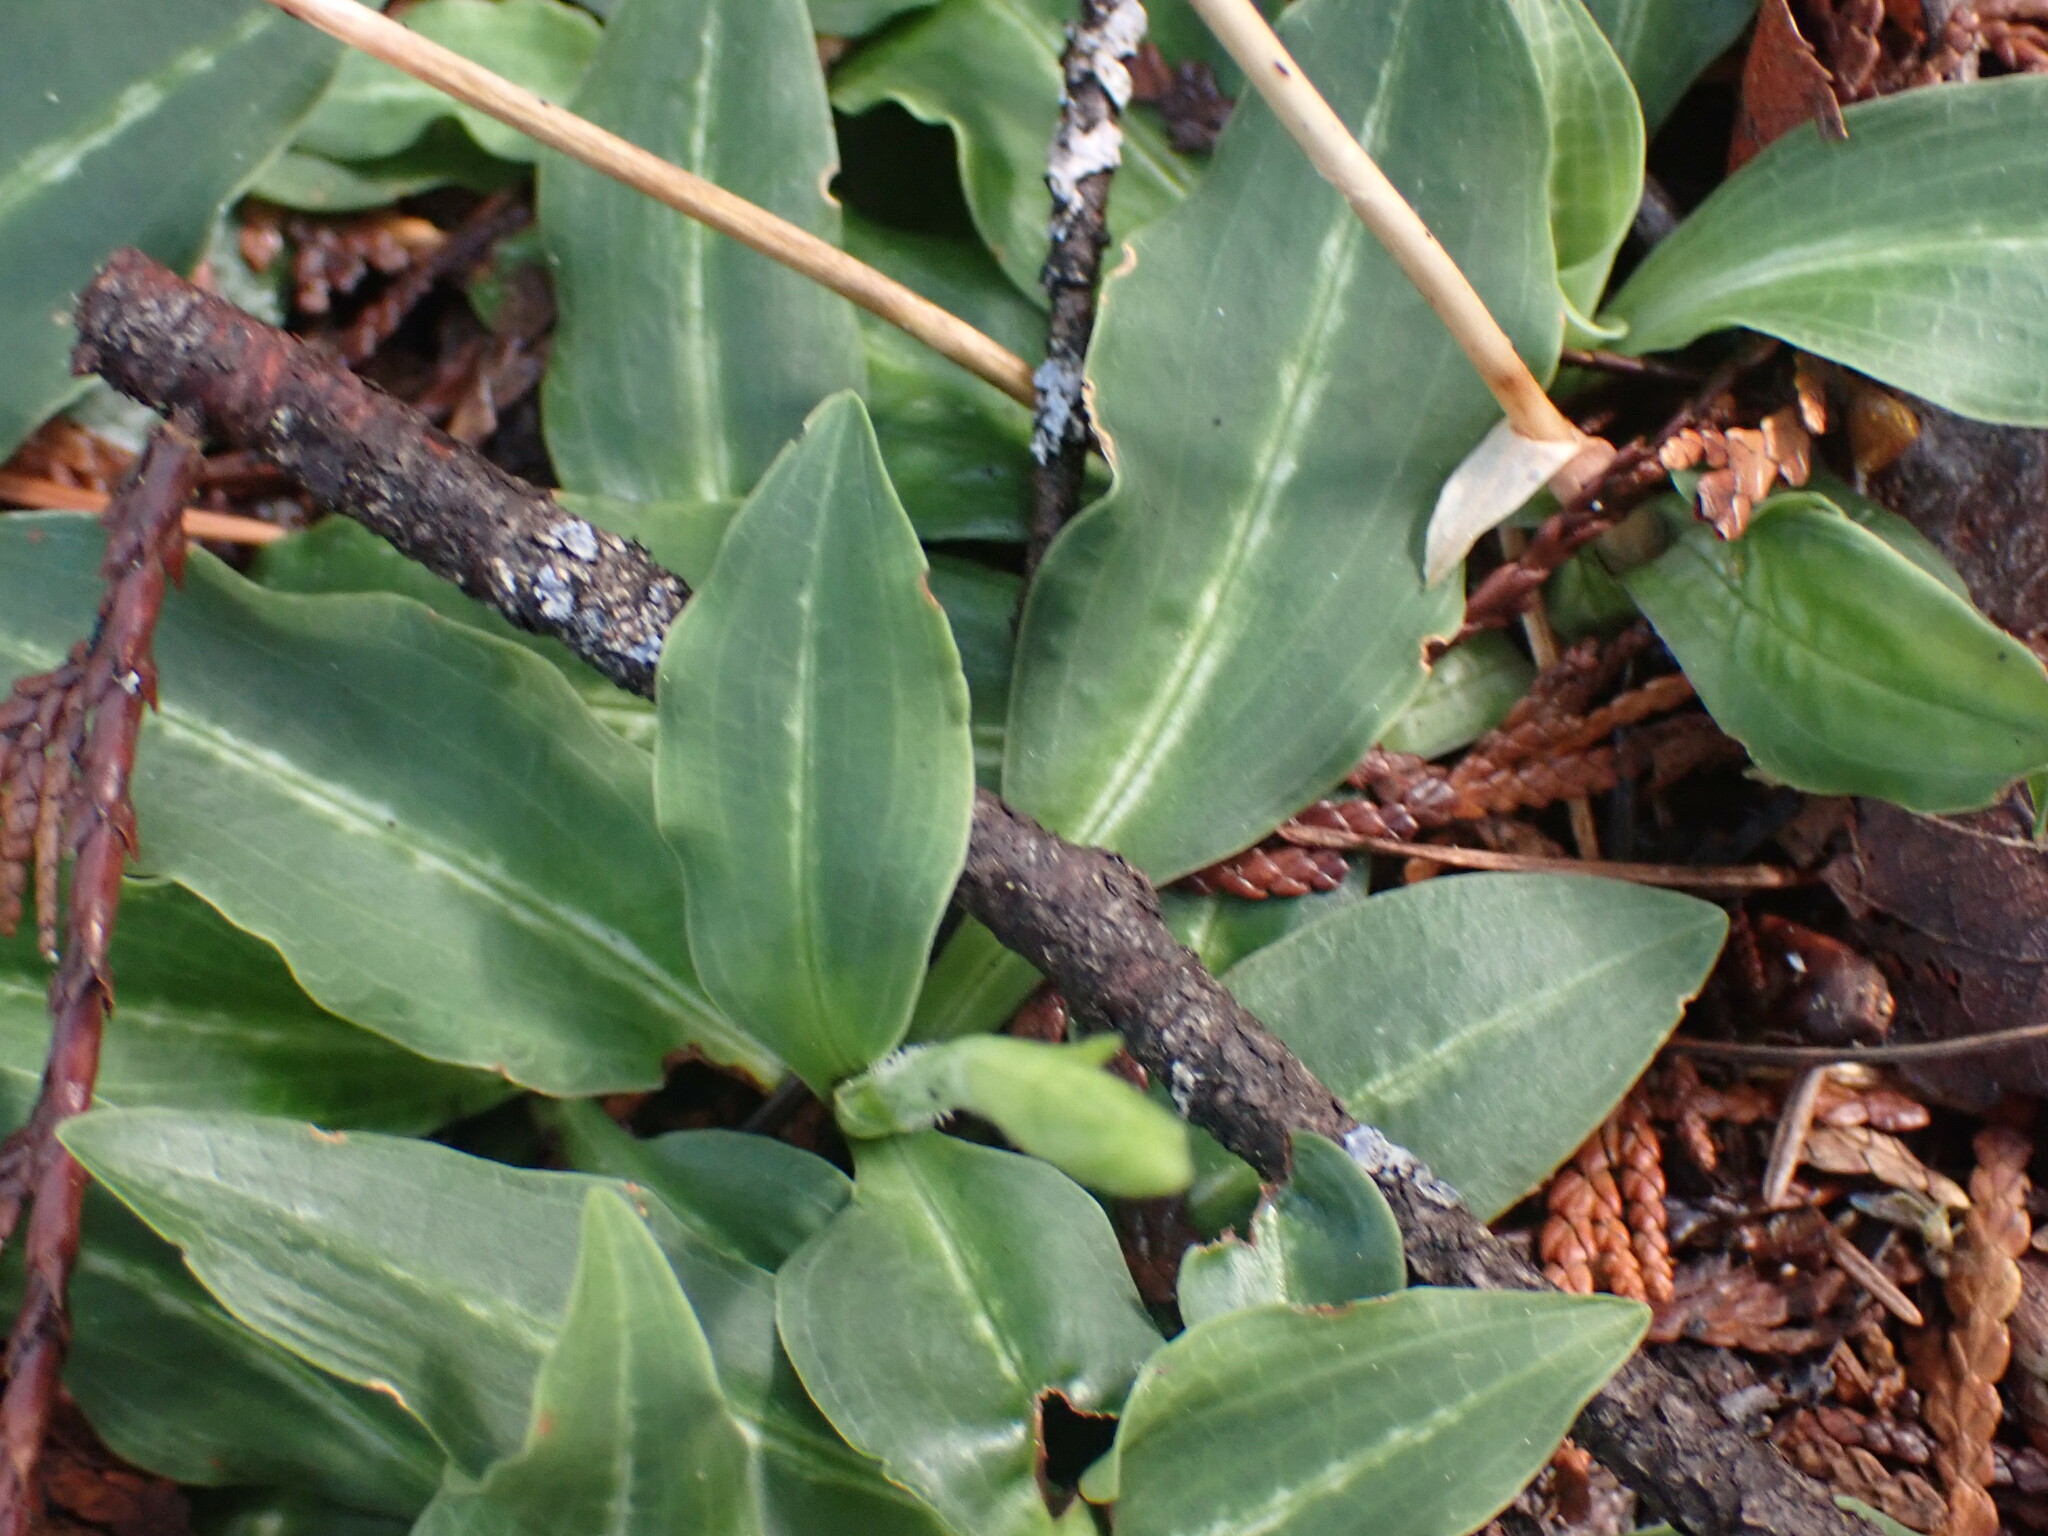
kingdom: Plantae
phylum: Tracheophyta
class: Liliopsida
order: Asparagales
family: Orchidaceae
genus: Goodyera
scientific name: Goodyera oblongifolia
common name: Giant rattlesnake-plantain
